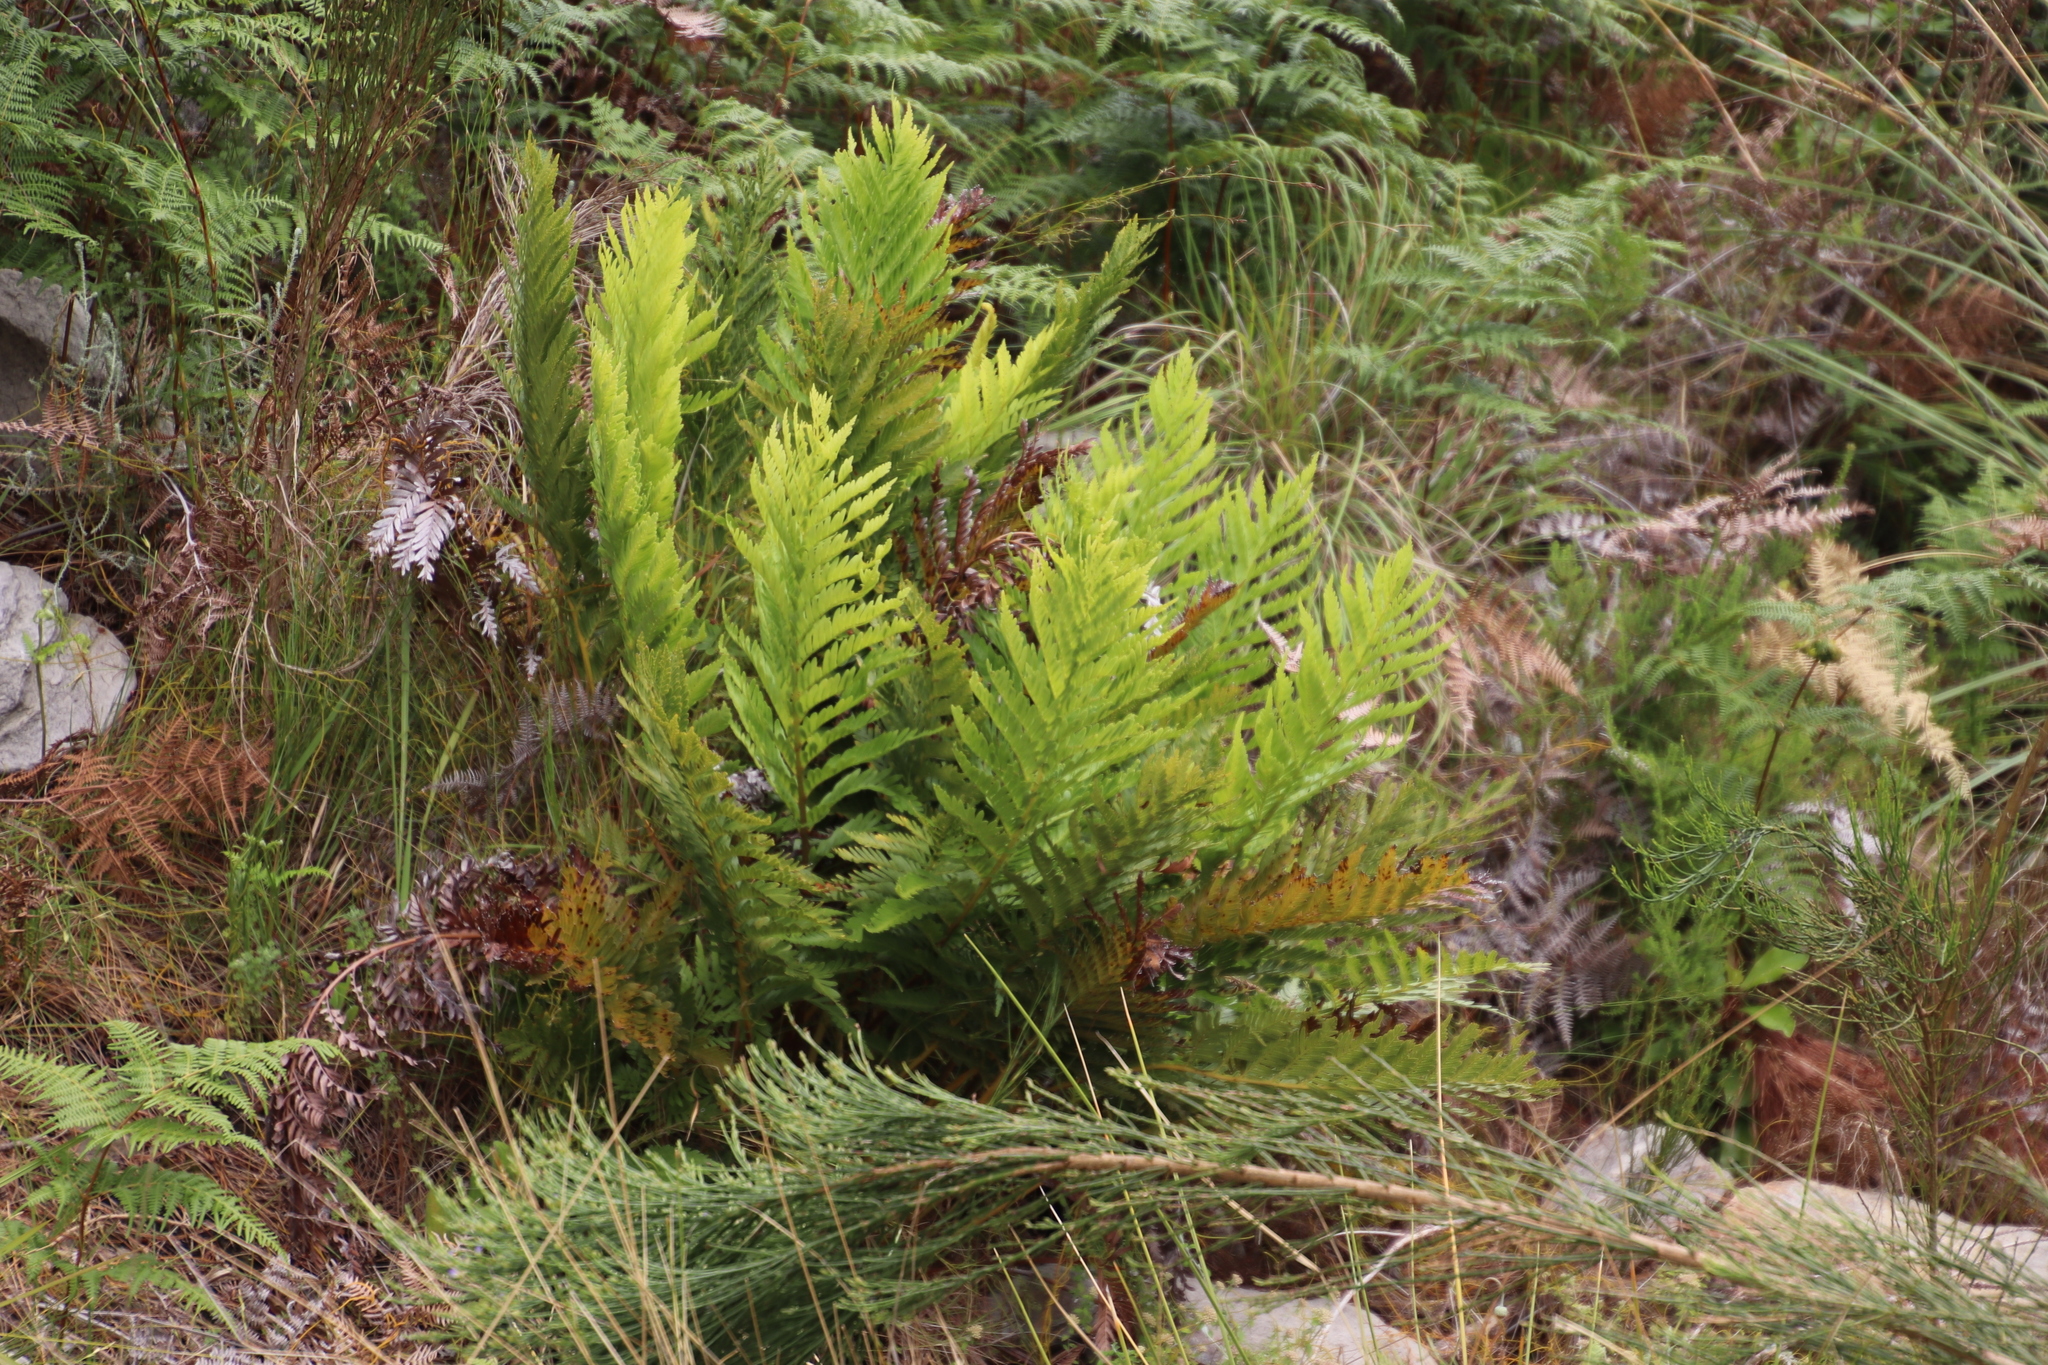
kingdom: Plantae
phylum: Tracheophyta
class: Polypodiopsida
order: Osmundales
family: Osmundaceae
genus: Todea
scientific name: Todea barbara
